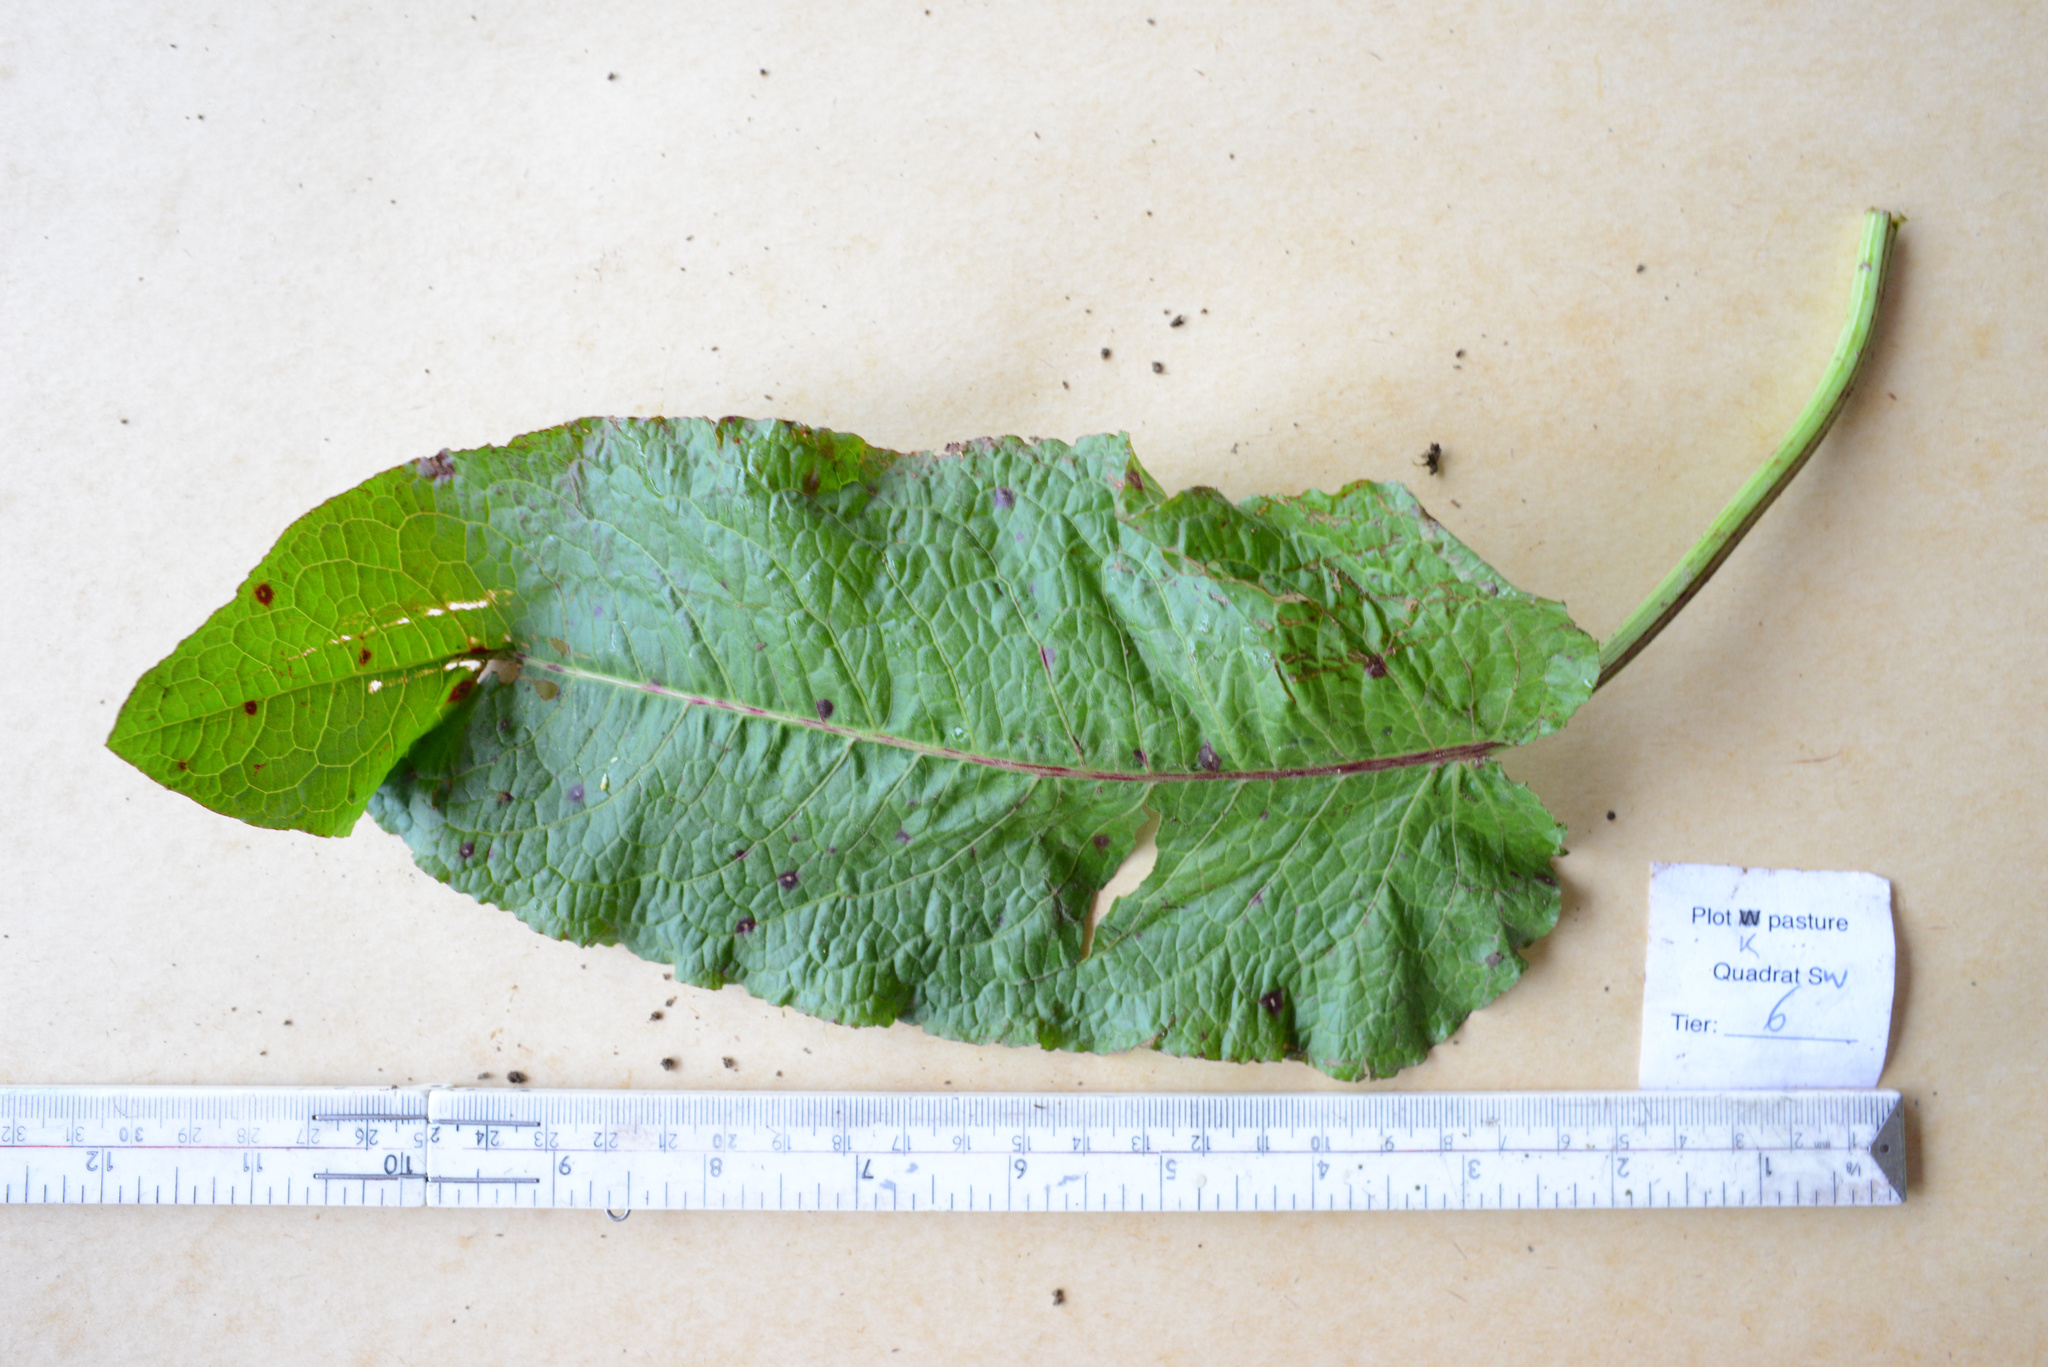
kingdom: Plantae
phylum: Tracheophyta
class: Magnoliopsida
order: Caryophyllales
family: Polygonaceae
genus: Rumex
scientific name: Rumex obtusifolius
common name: Bitter dock
